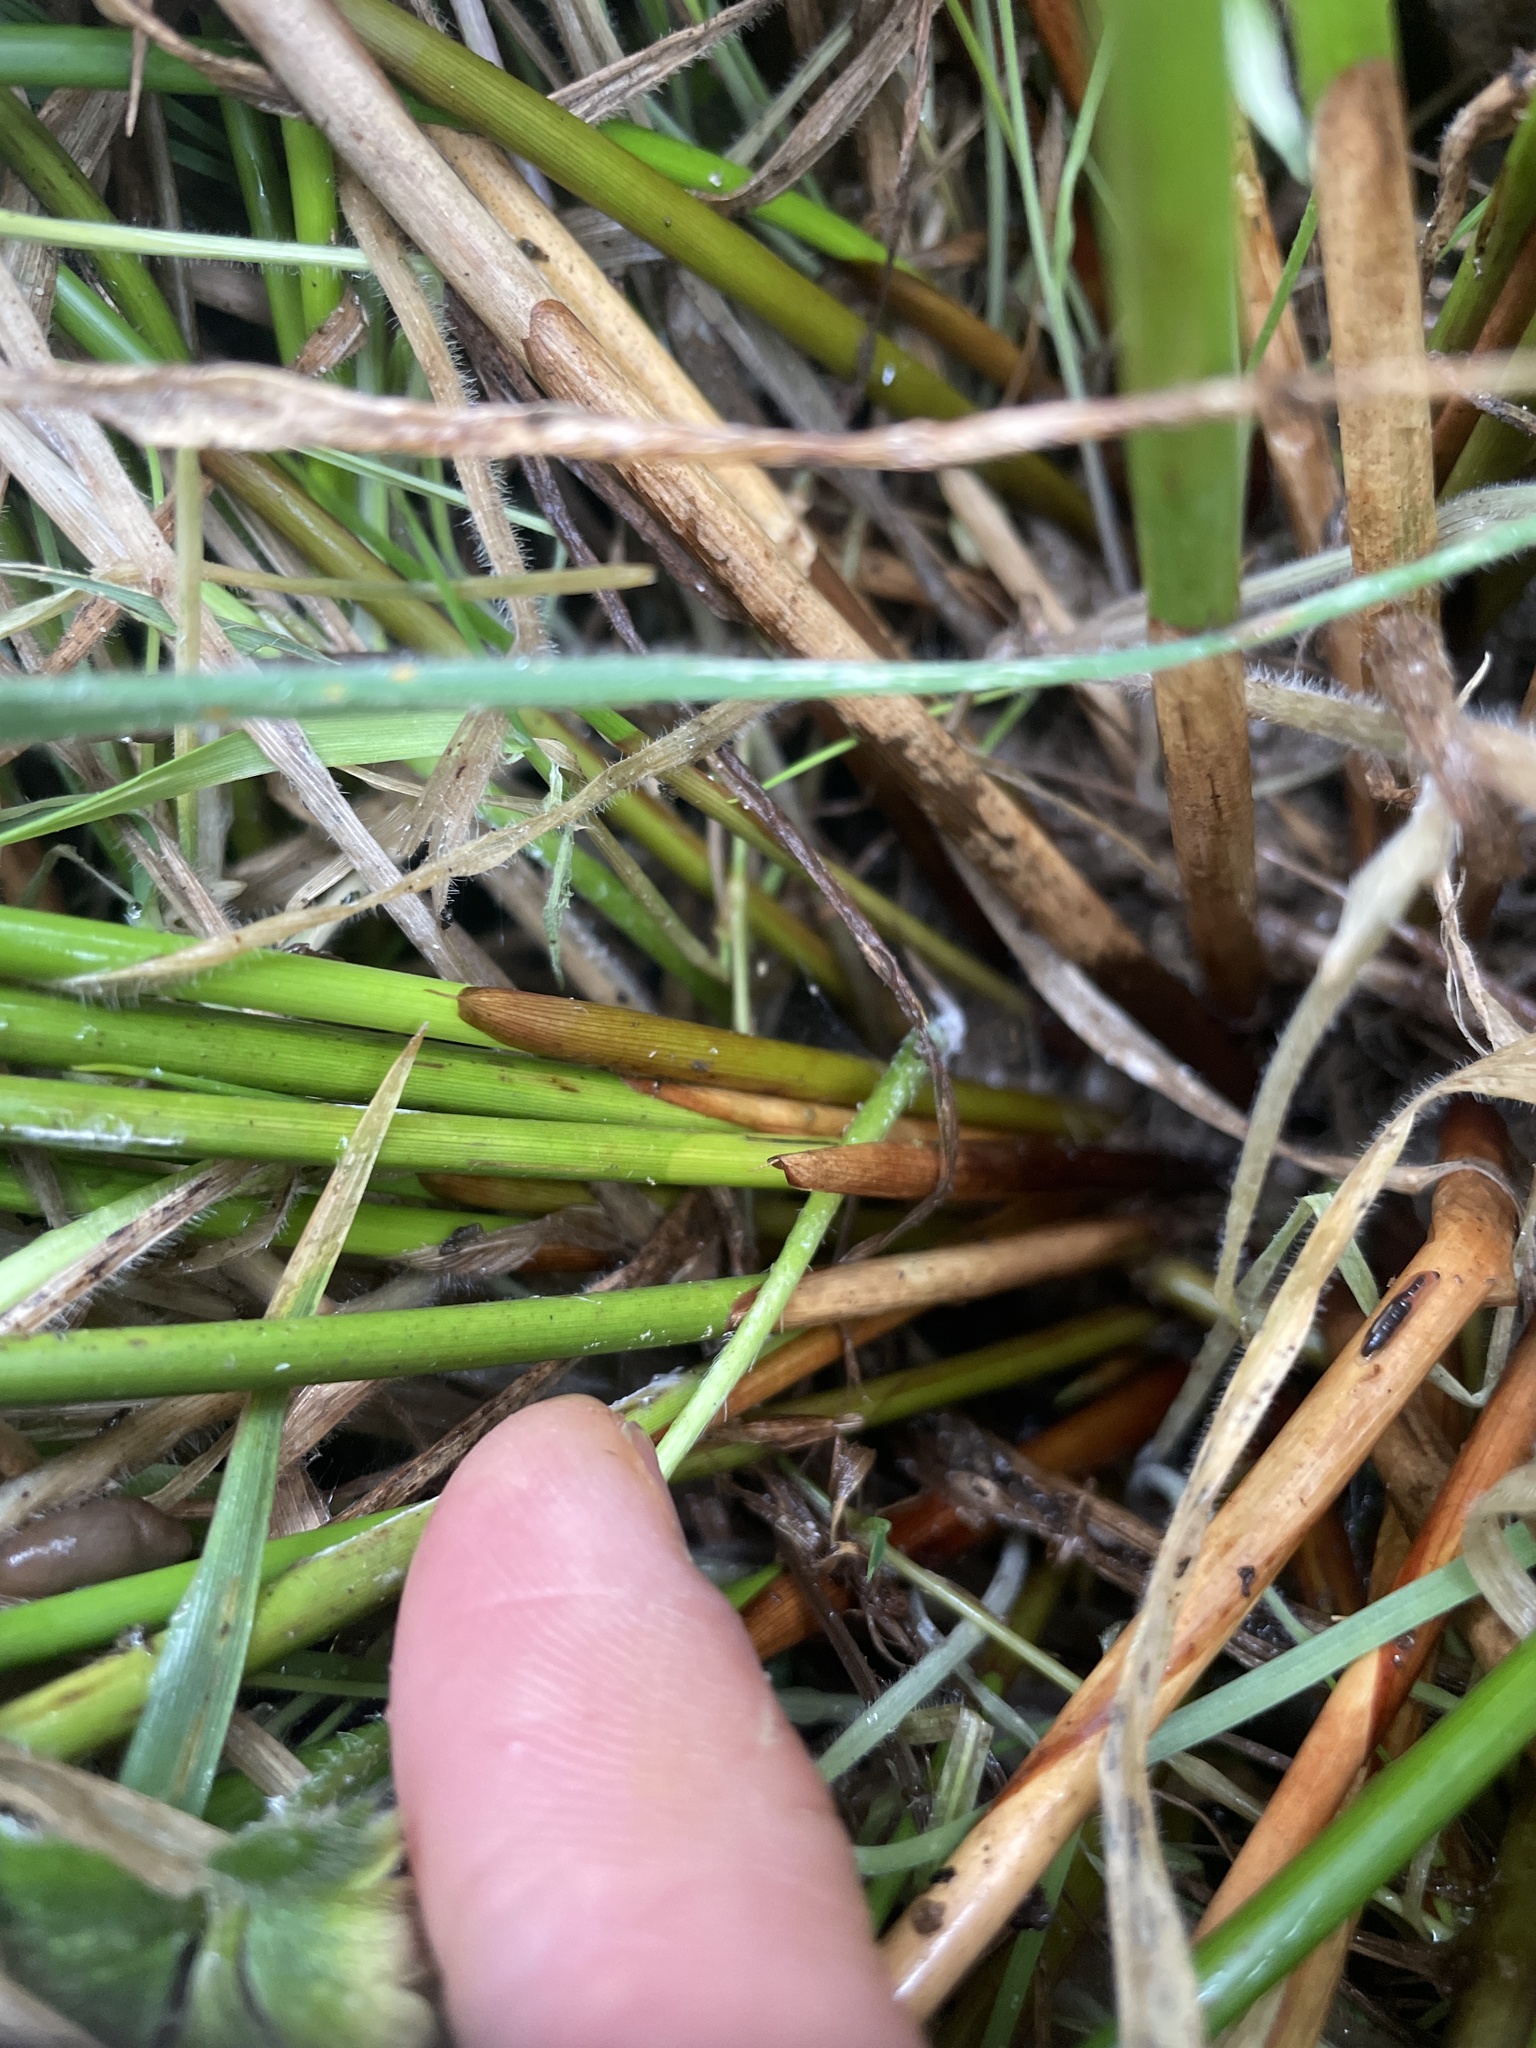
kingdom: Plantae
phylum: Tracheophyta
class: Liliopsida
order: Poales
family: Juncaceae
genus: Juncus
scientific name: Juncus effusus
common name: Soft rush
